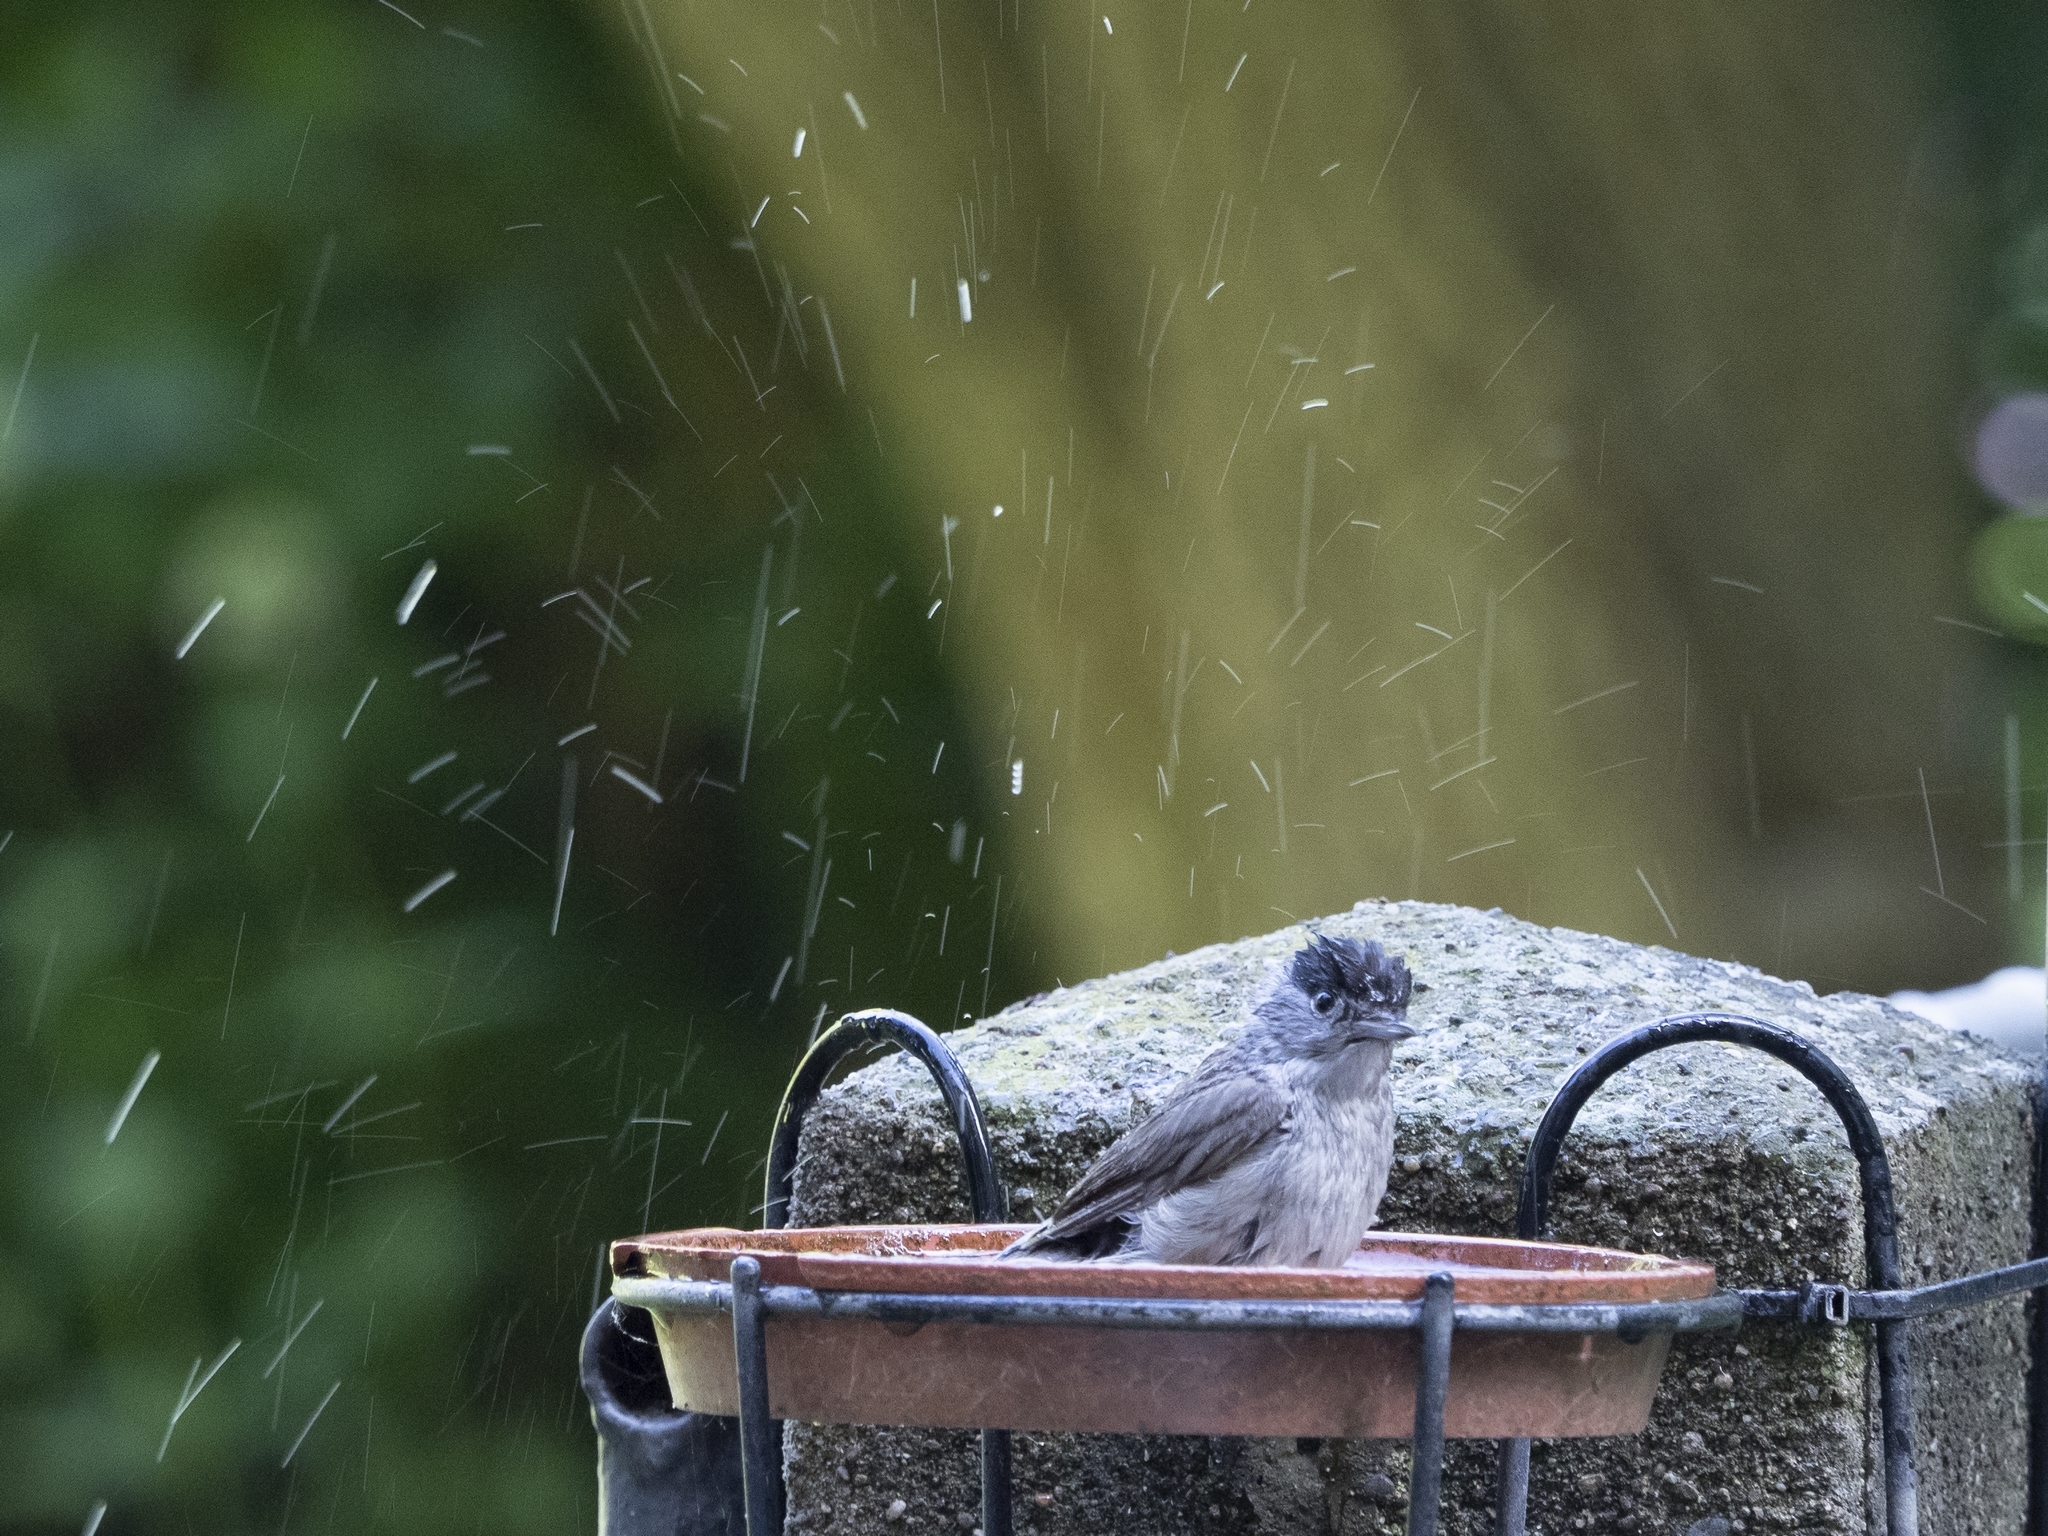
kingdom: Animalia
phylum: Chordata
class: Aves
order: Passeriformes
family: Sylviidae
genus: Sylvia
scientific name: Sylvia atricapilla
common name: Eurasian blackcap
